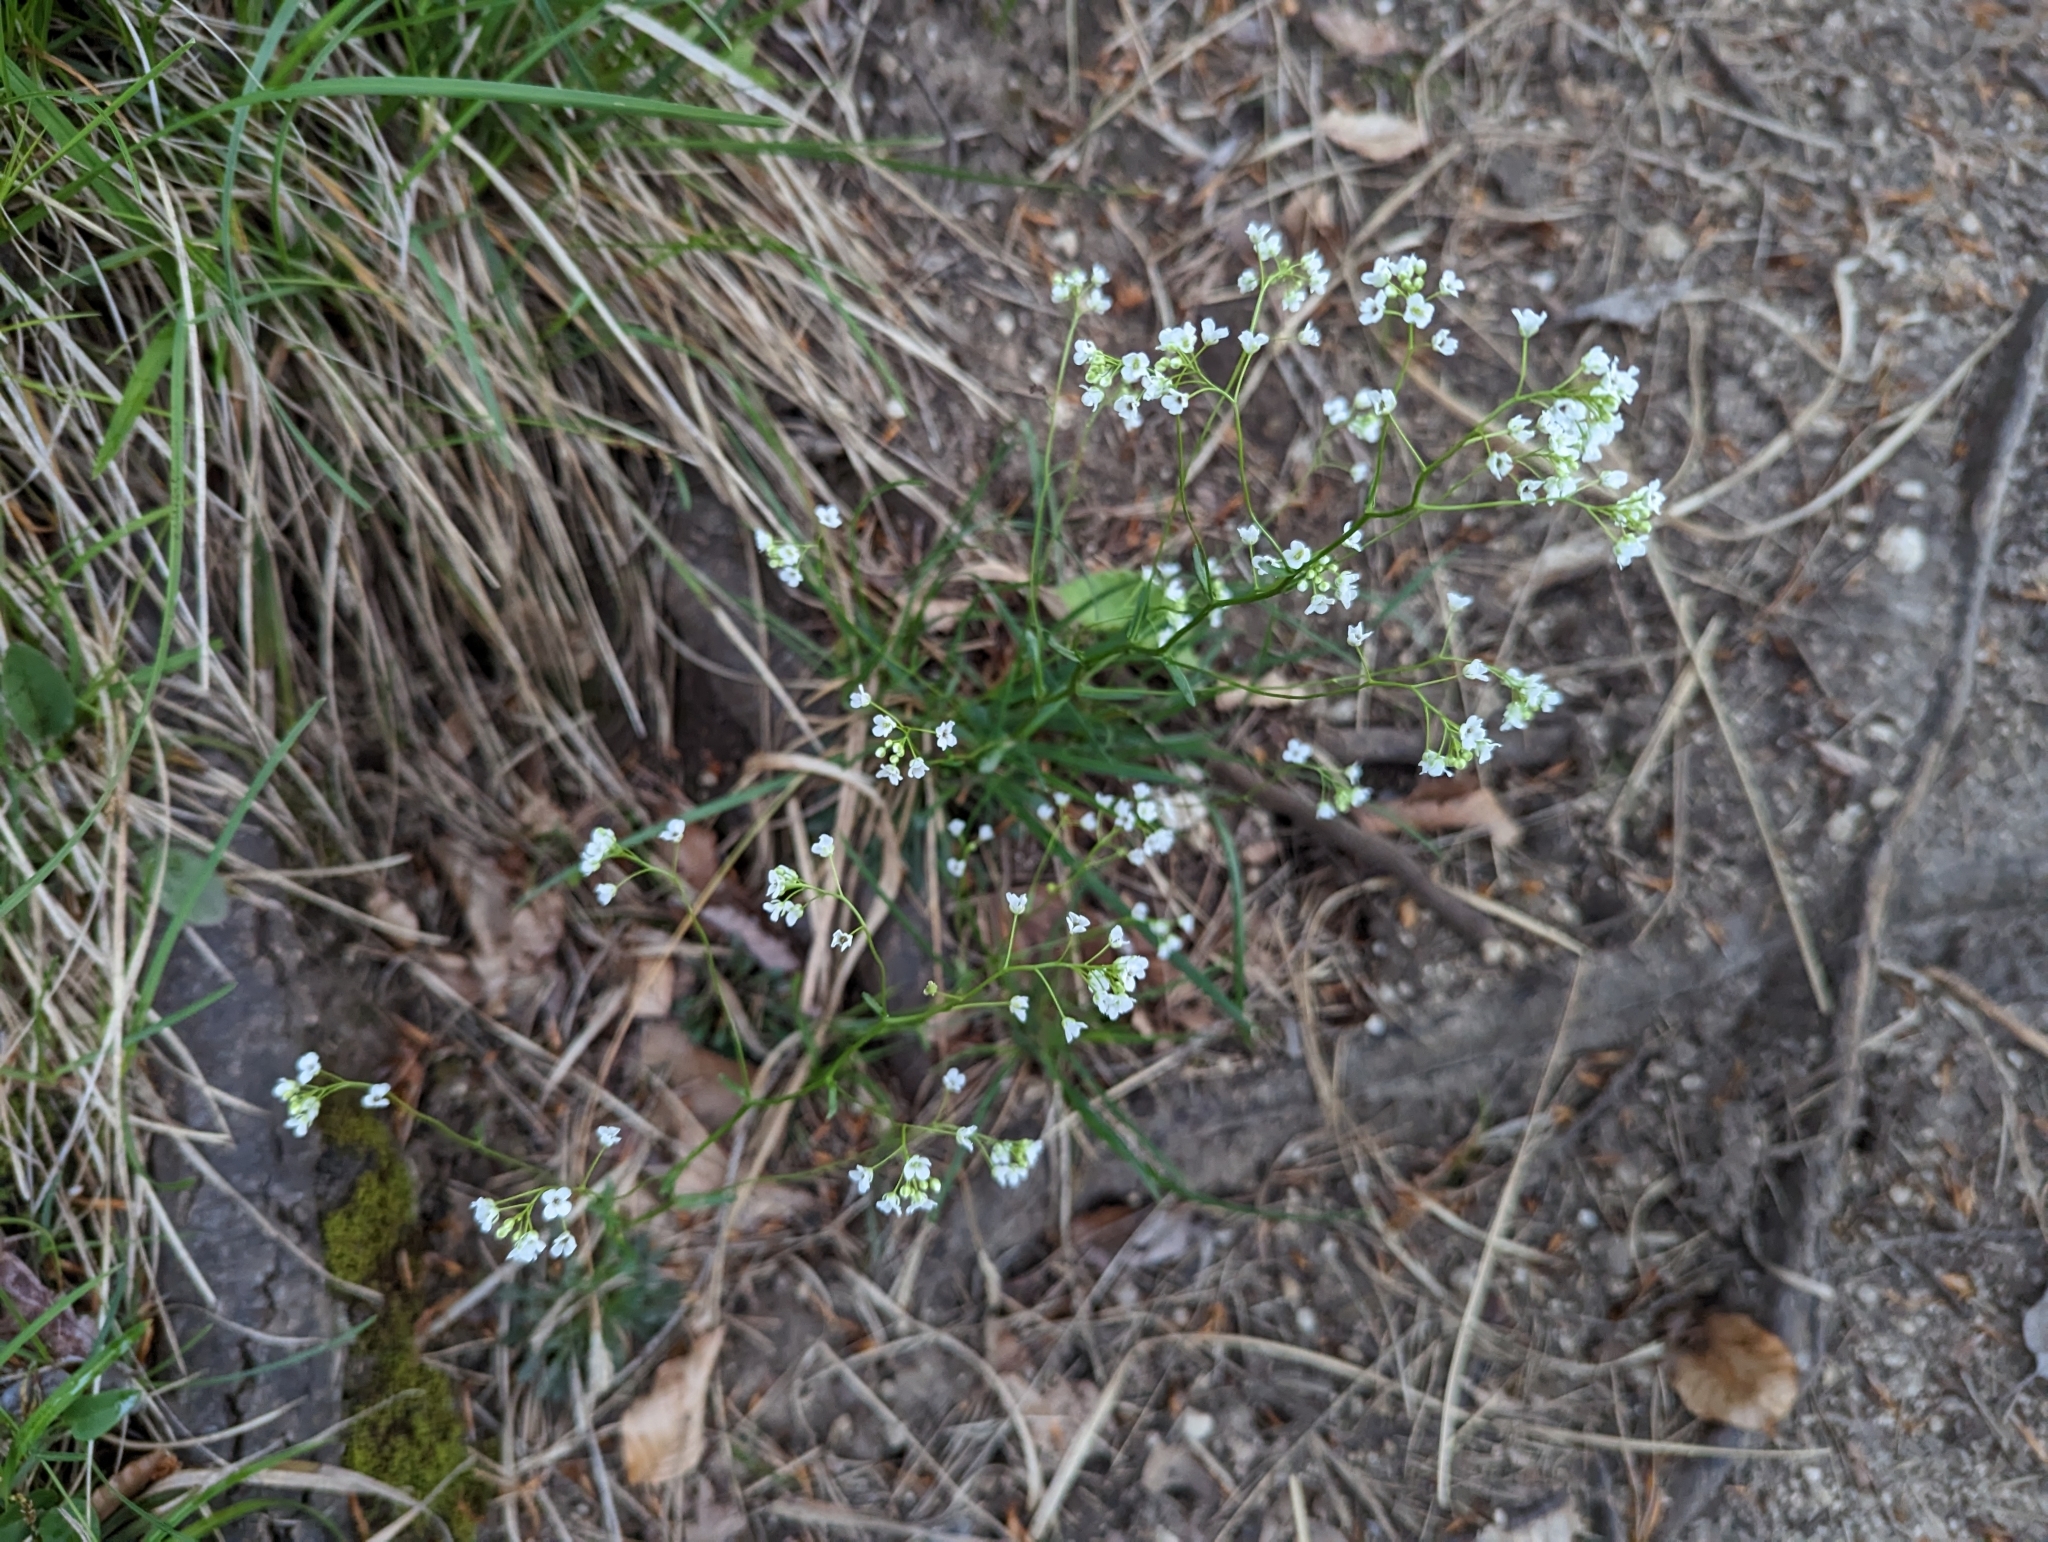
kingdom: Plantae
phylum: Tracheophyta
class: Magnoliopsida
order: Brassicales
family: Brassicaceae
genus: Kernera
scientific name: Kernera saxatilis
